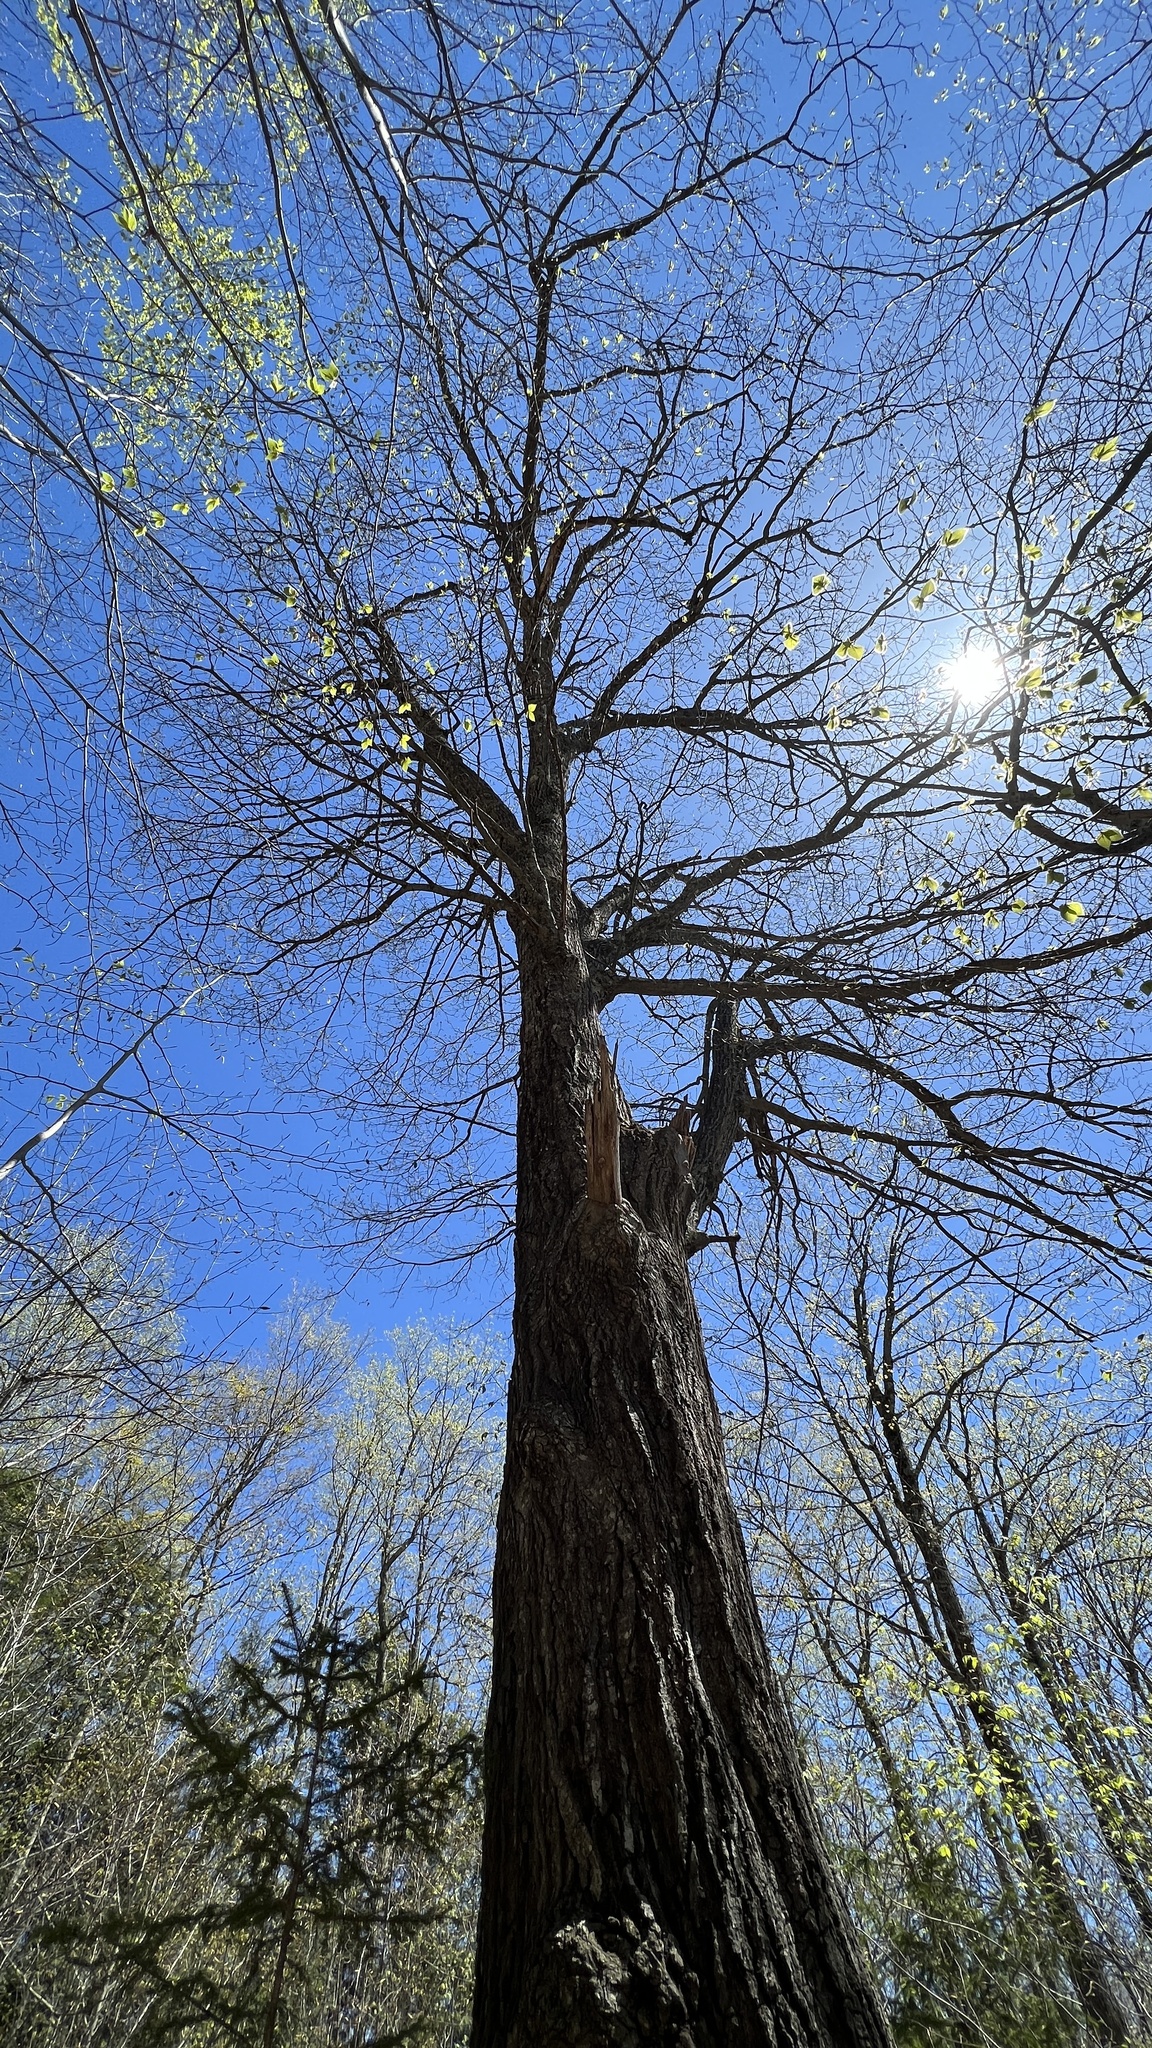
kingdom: Plantae
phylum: Tracheophyta
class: Magnoliopsida
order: Fagales
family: Fagaceae
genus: Quercus
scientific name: Quercus rubra
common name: Red oak
